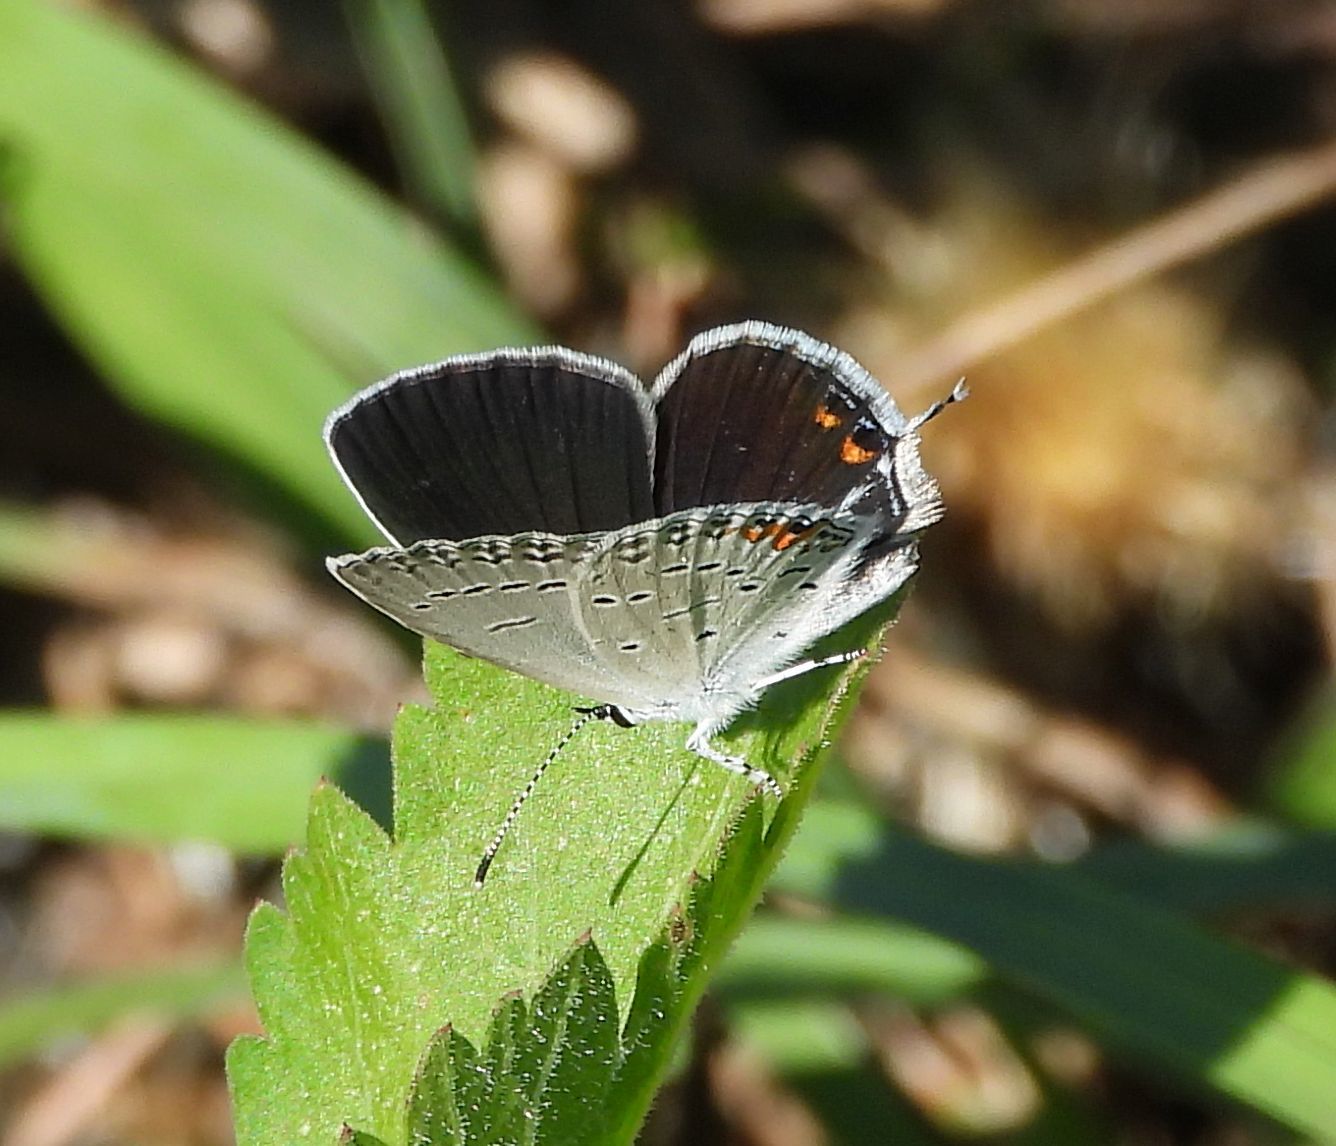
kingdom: Animalia
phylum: Arthropoda
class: Insecta
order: Lepidoptera
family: Lycaenidae
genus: Elkalyce
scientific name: Elkalyce comyntas
